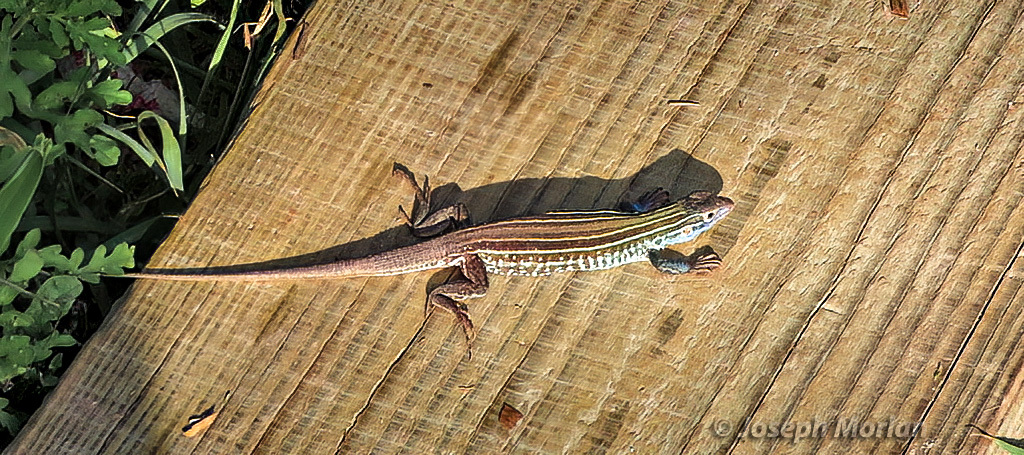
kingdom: Animalia
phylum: Chordata
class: Squamata
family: Teiidae
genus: Aspidoscelis
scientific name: Aspidoscelis gularis
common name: Eastern spotted whiptail
